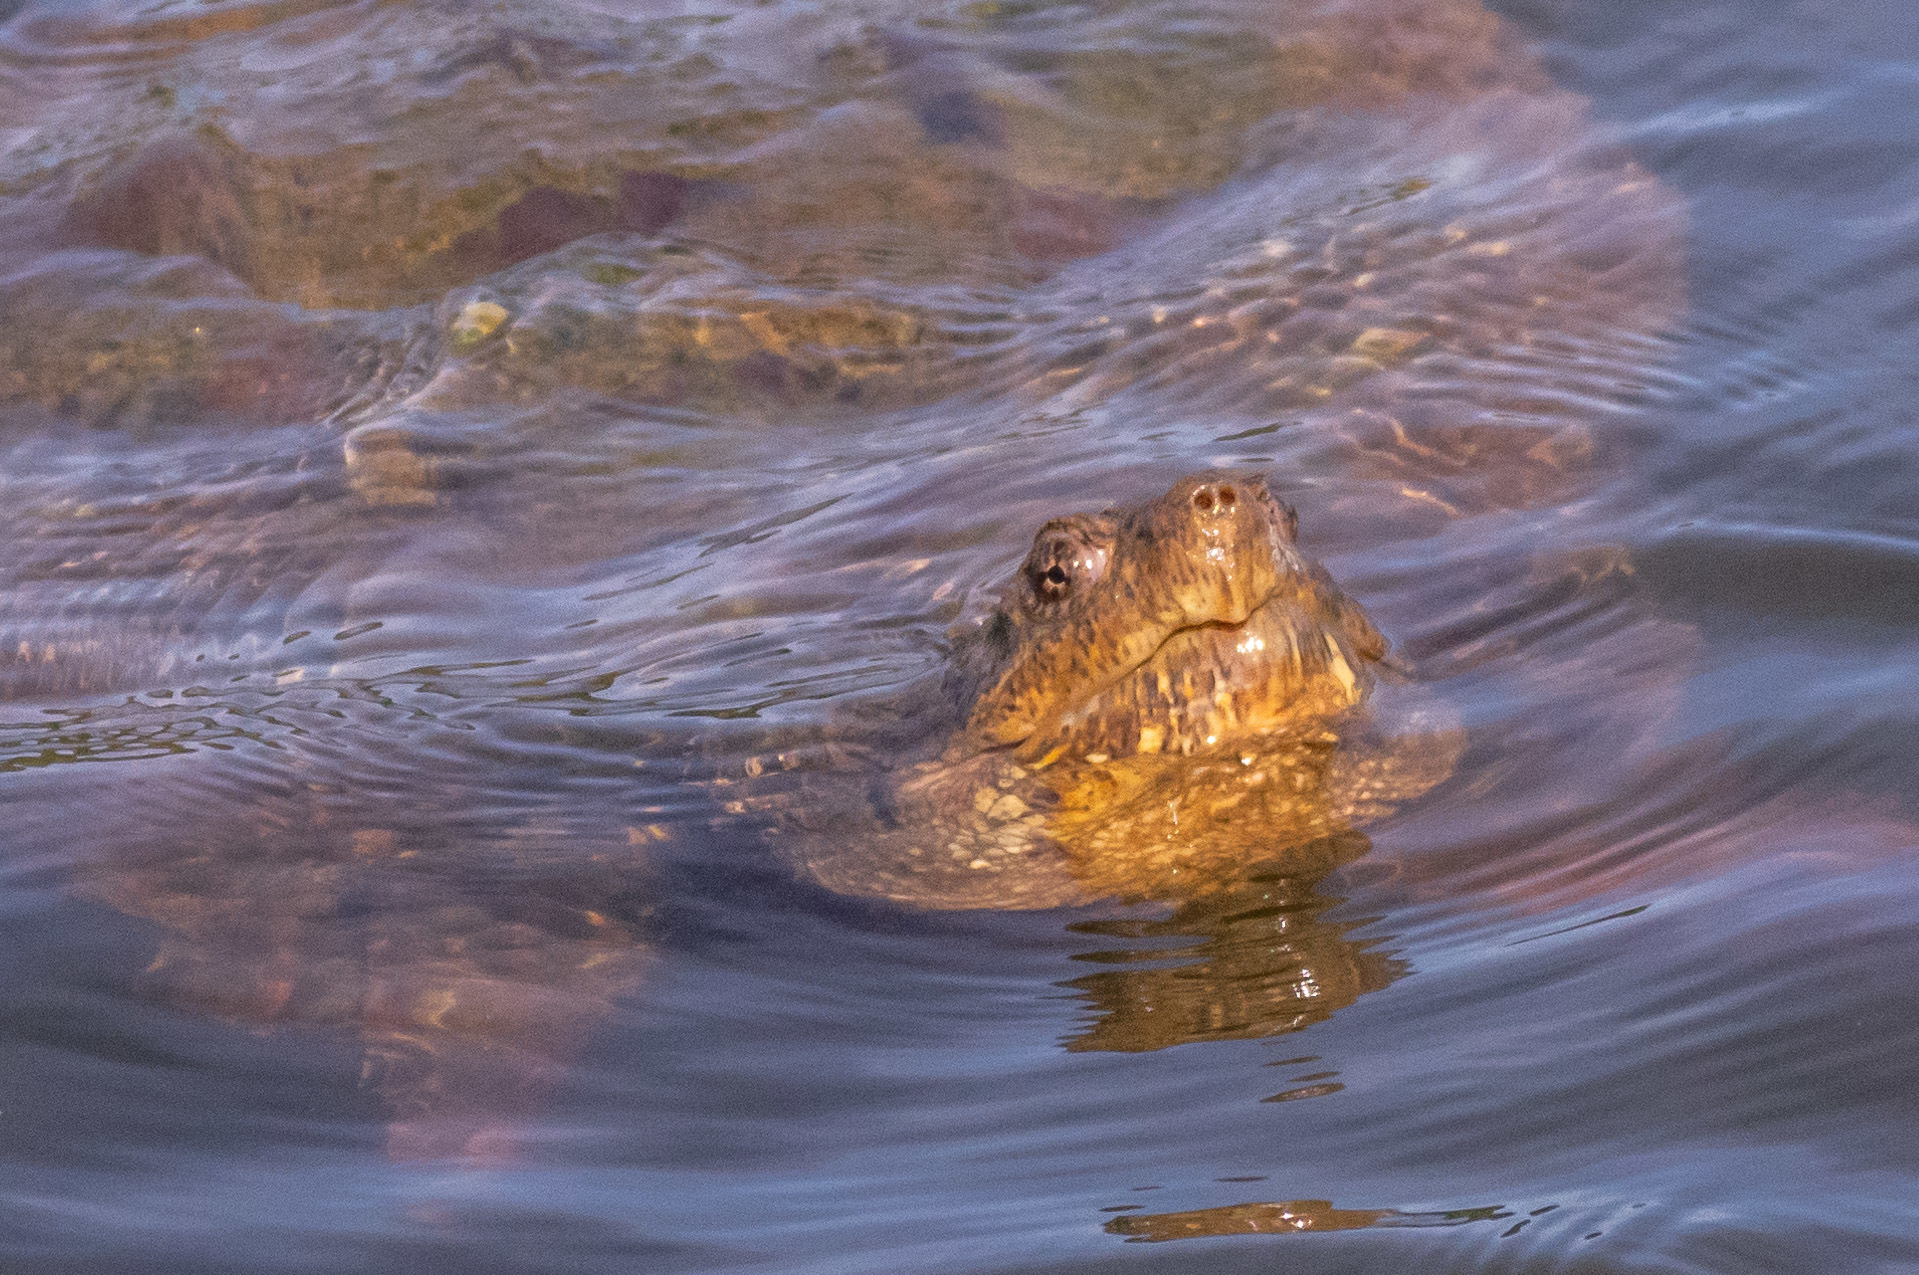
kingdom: Animalia
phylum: Chordata
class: Testudines
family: Chelydridae
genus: Chelydra
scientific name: Chelydra serpentina
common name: Common snapping turtle
